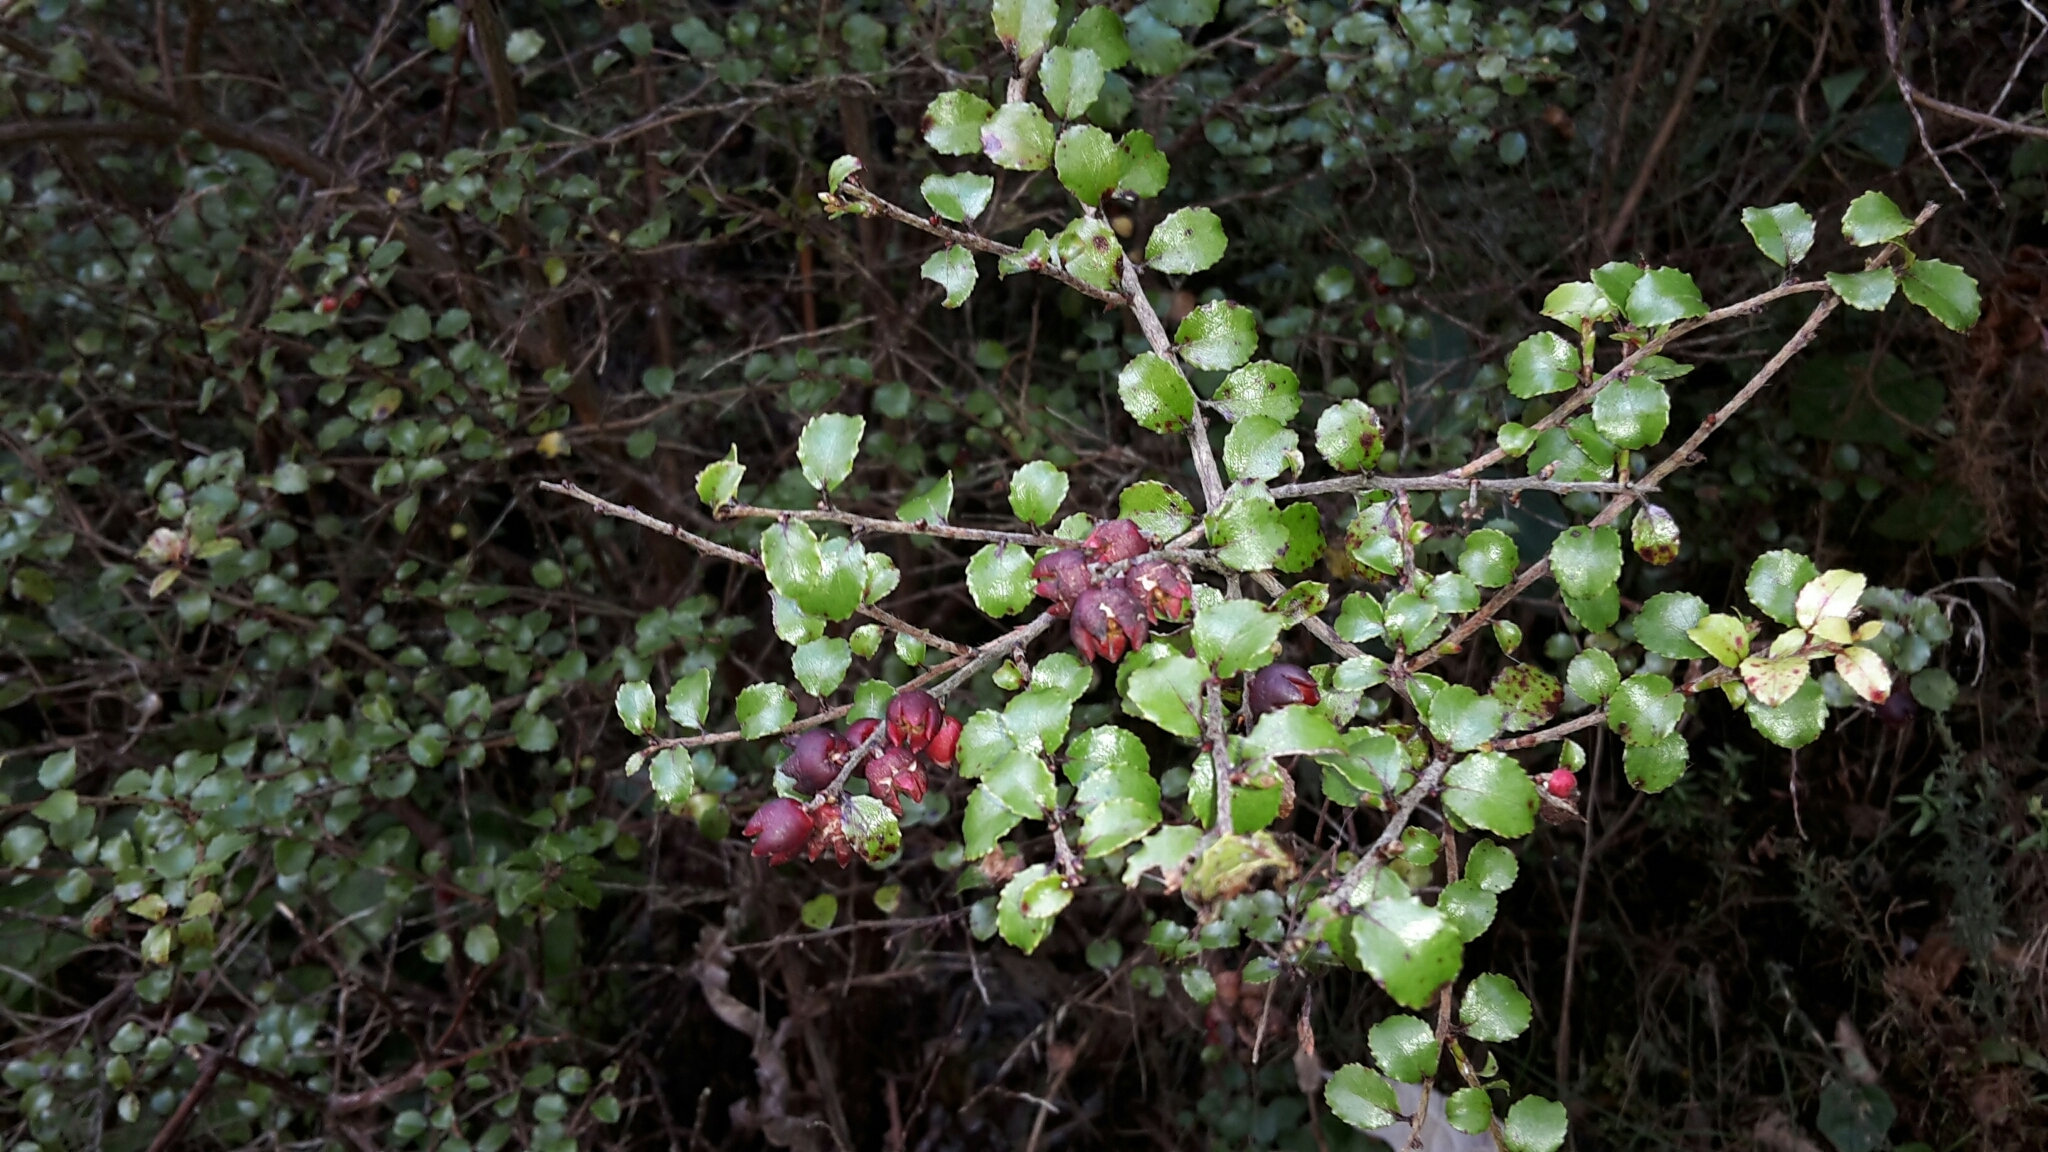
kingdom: Plantae
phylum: Tracheophyta
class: Magnoliopsida
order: Ericales
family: Ericaceae
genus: Gaultheria
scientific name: Gaultheria antipoda
